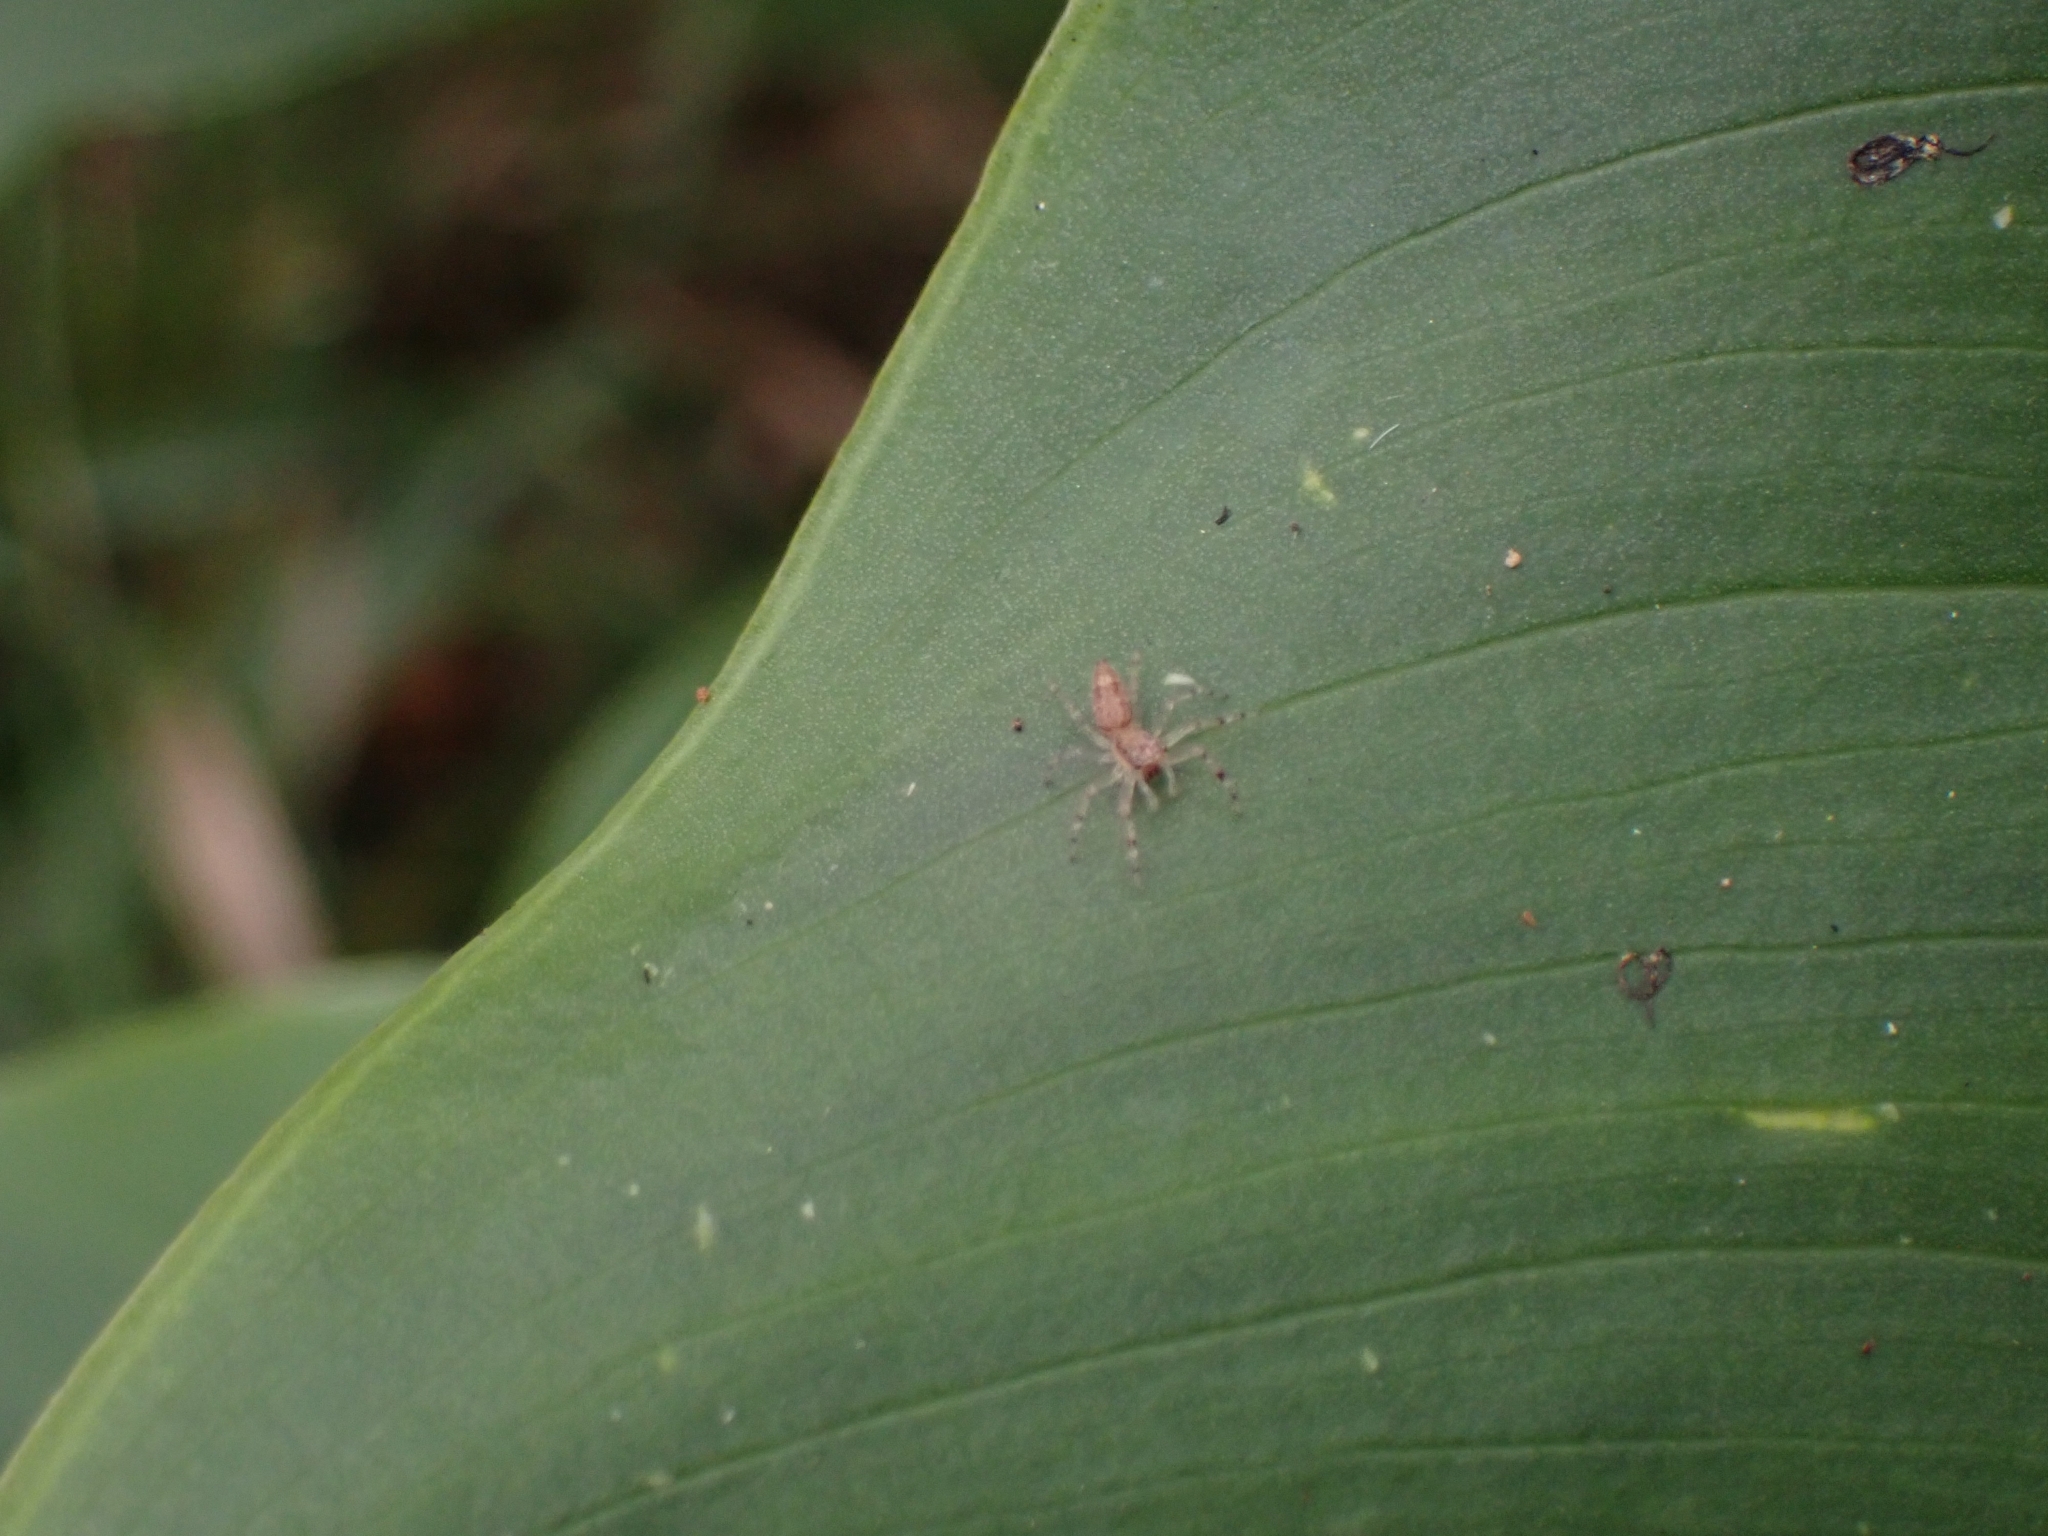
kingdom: Animalia
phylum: Arthropoda
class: Arachnida
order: Araneae
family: Salticidae
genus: Helpis
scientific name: Helpis minitabunda
